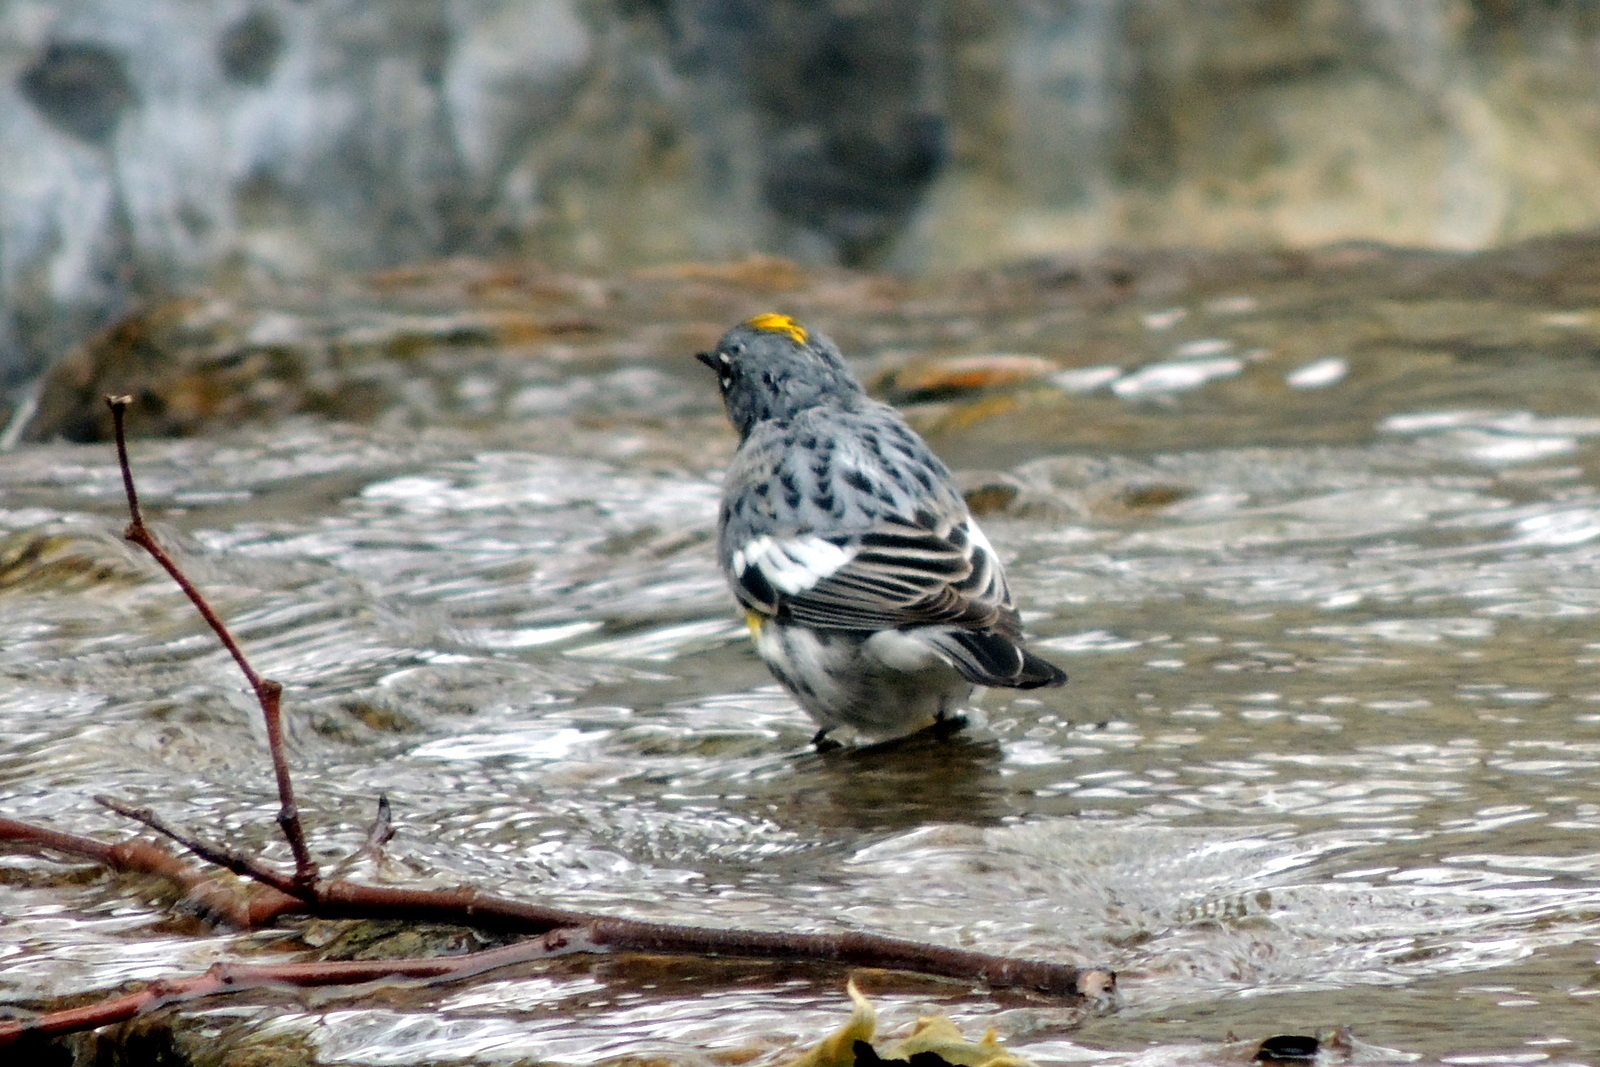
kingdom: Animalia
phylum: Chordata
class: Aves
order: Passeriformes
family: Parulidae
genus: Setophaga
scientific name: Setophaga coronata
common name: Myrtle warbler
